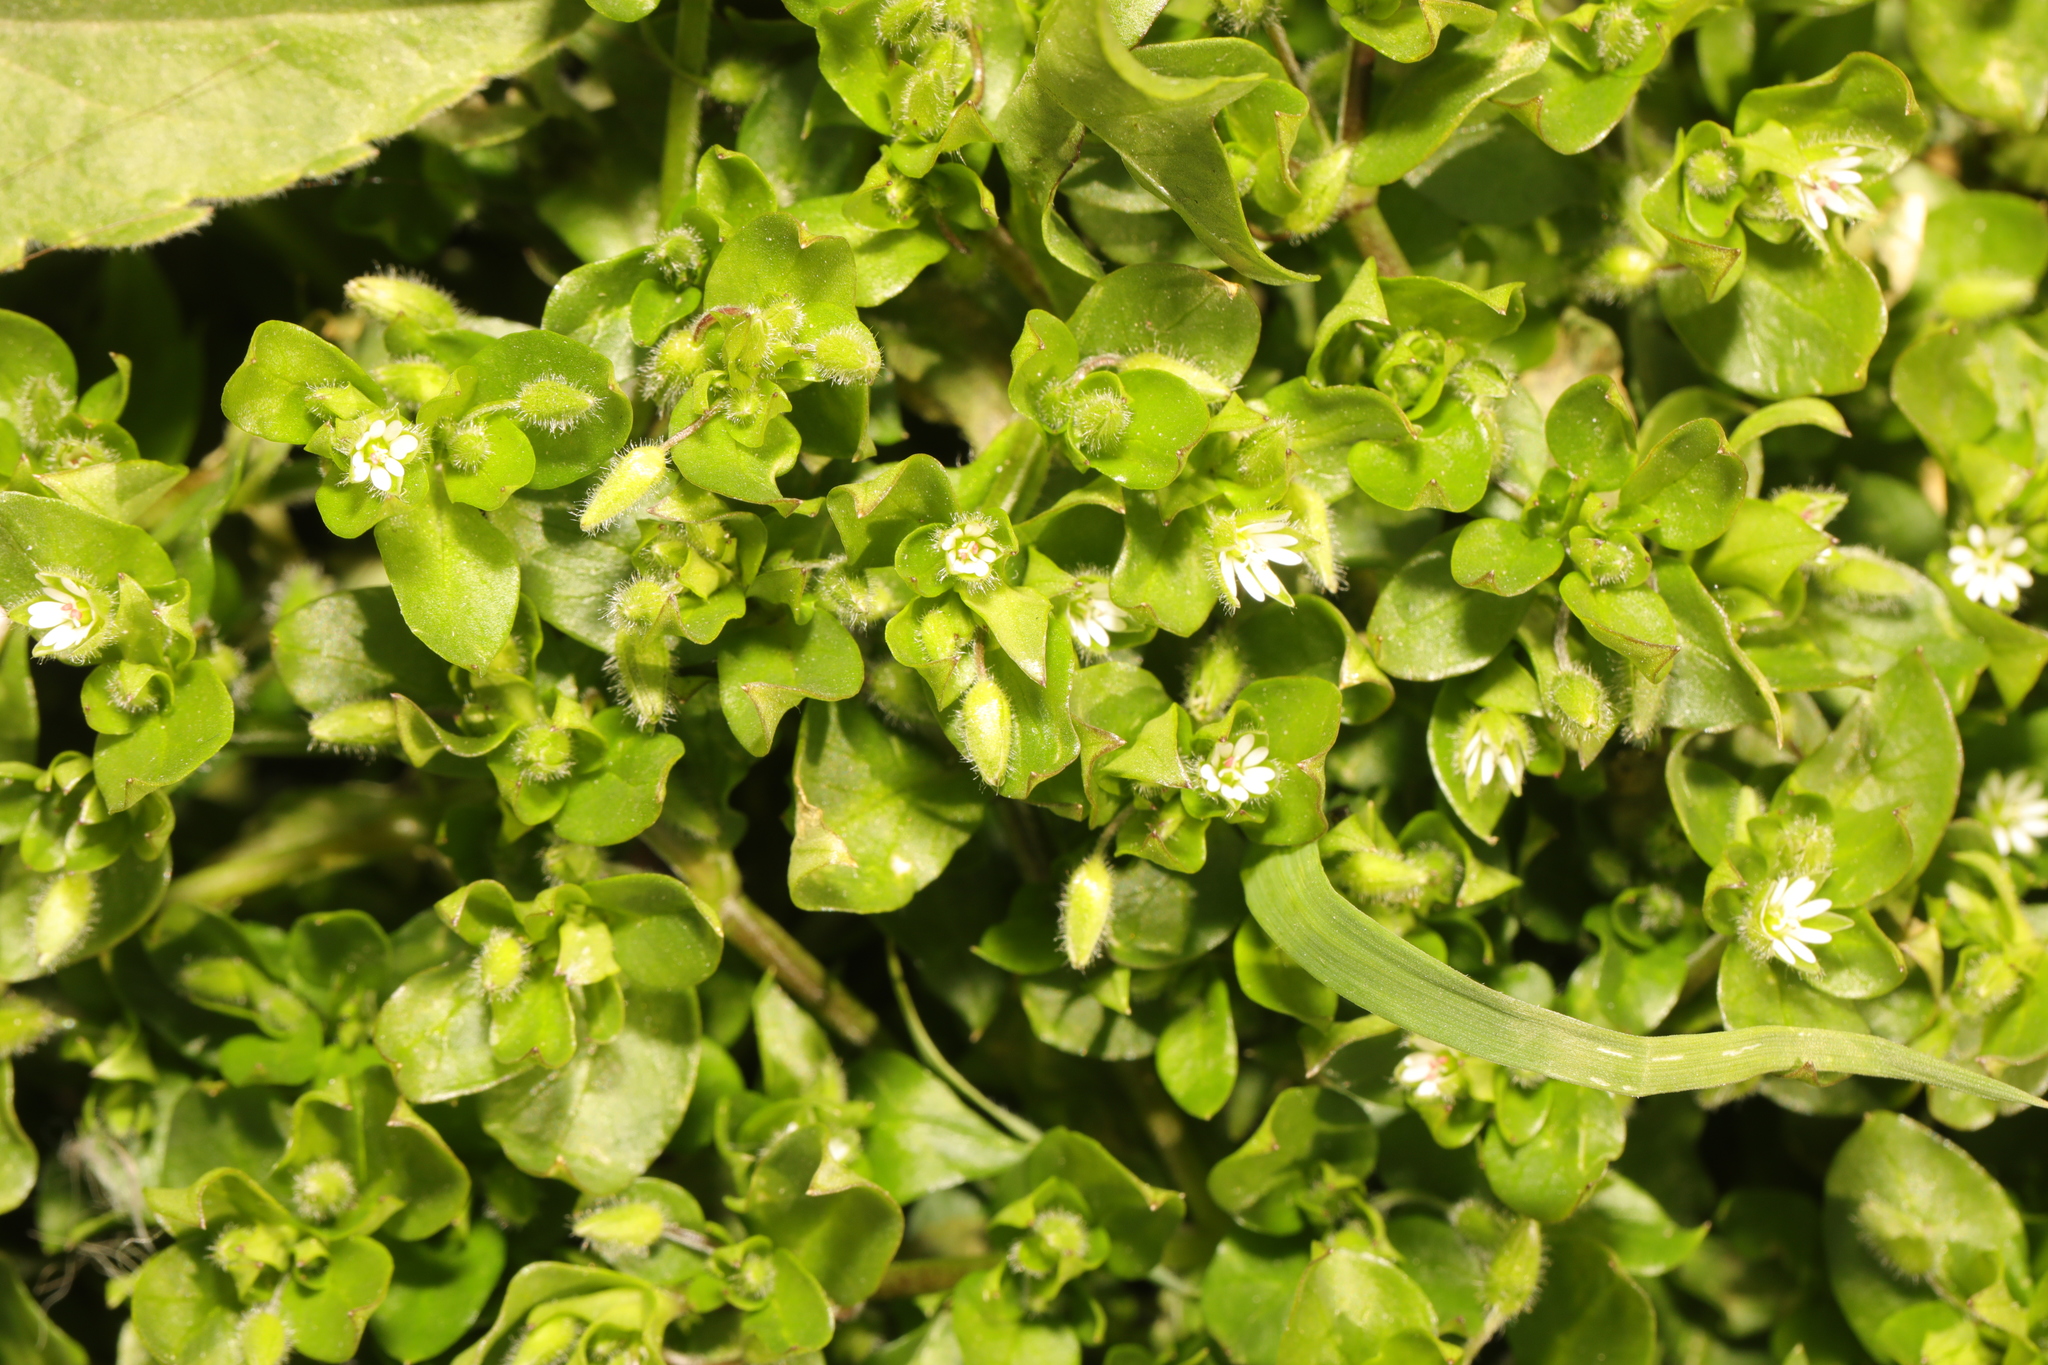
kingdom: Plantae
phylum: Tracheophyta
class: Magnoliopsida
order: Caryophyllales
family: Caryophyllaceae
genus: Stellaria
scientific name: Stellaria media
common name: Common chickweed
